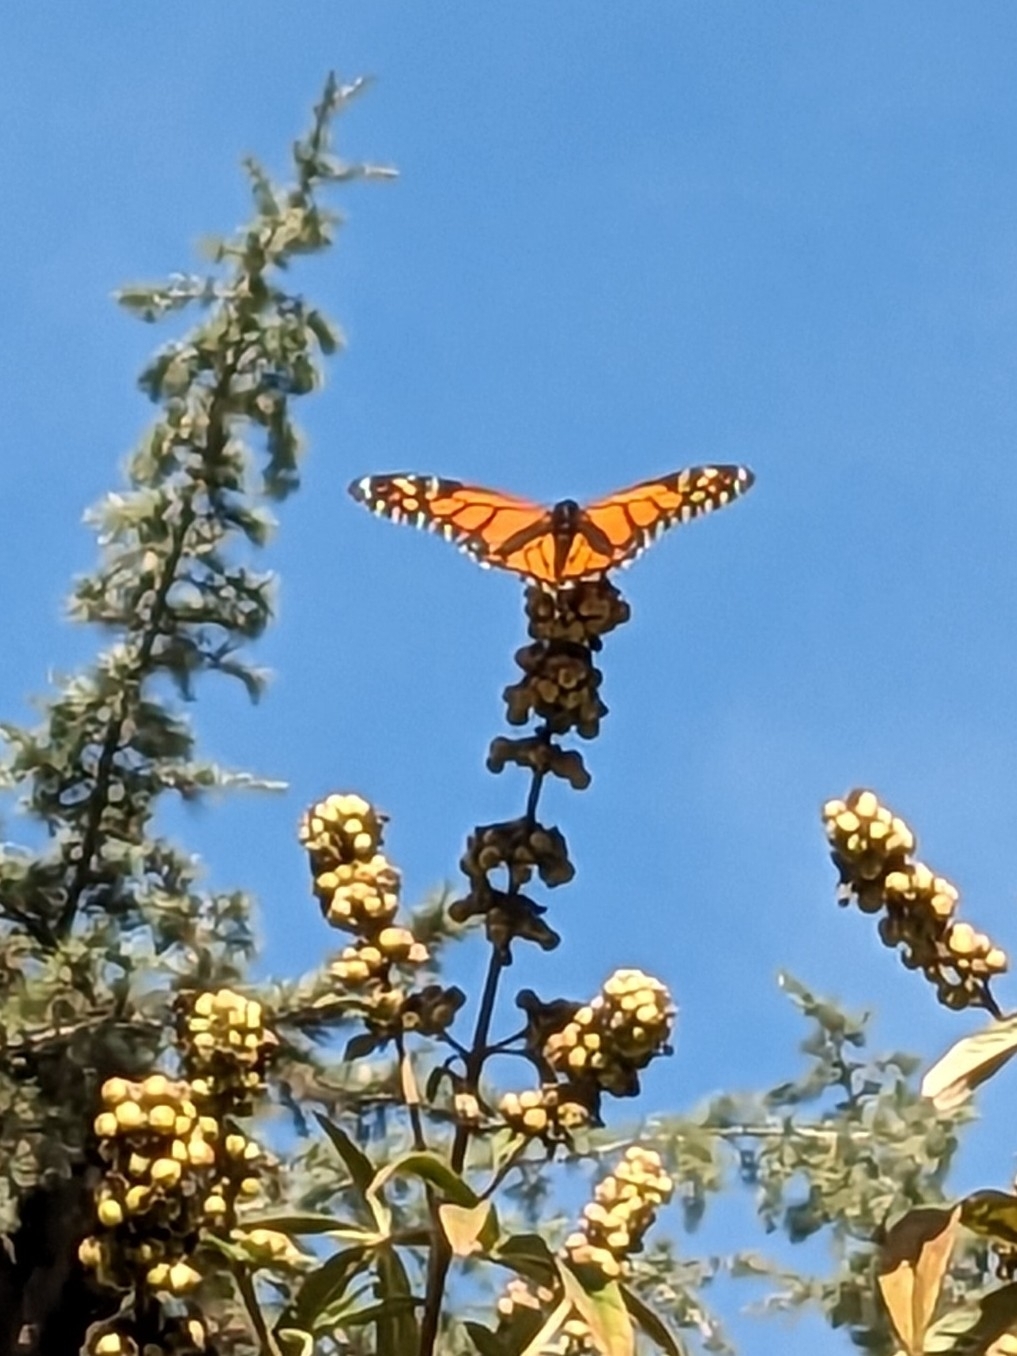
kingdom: Animalia
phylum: Arthropoda
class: Insecta
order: Lepidoptera
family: Nymphalidae
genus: Danaus
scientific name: Danaus plexippus
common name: Monarch
